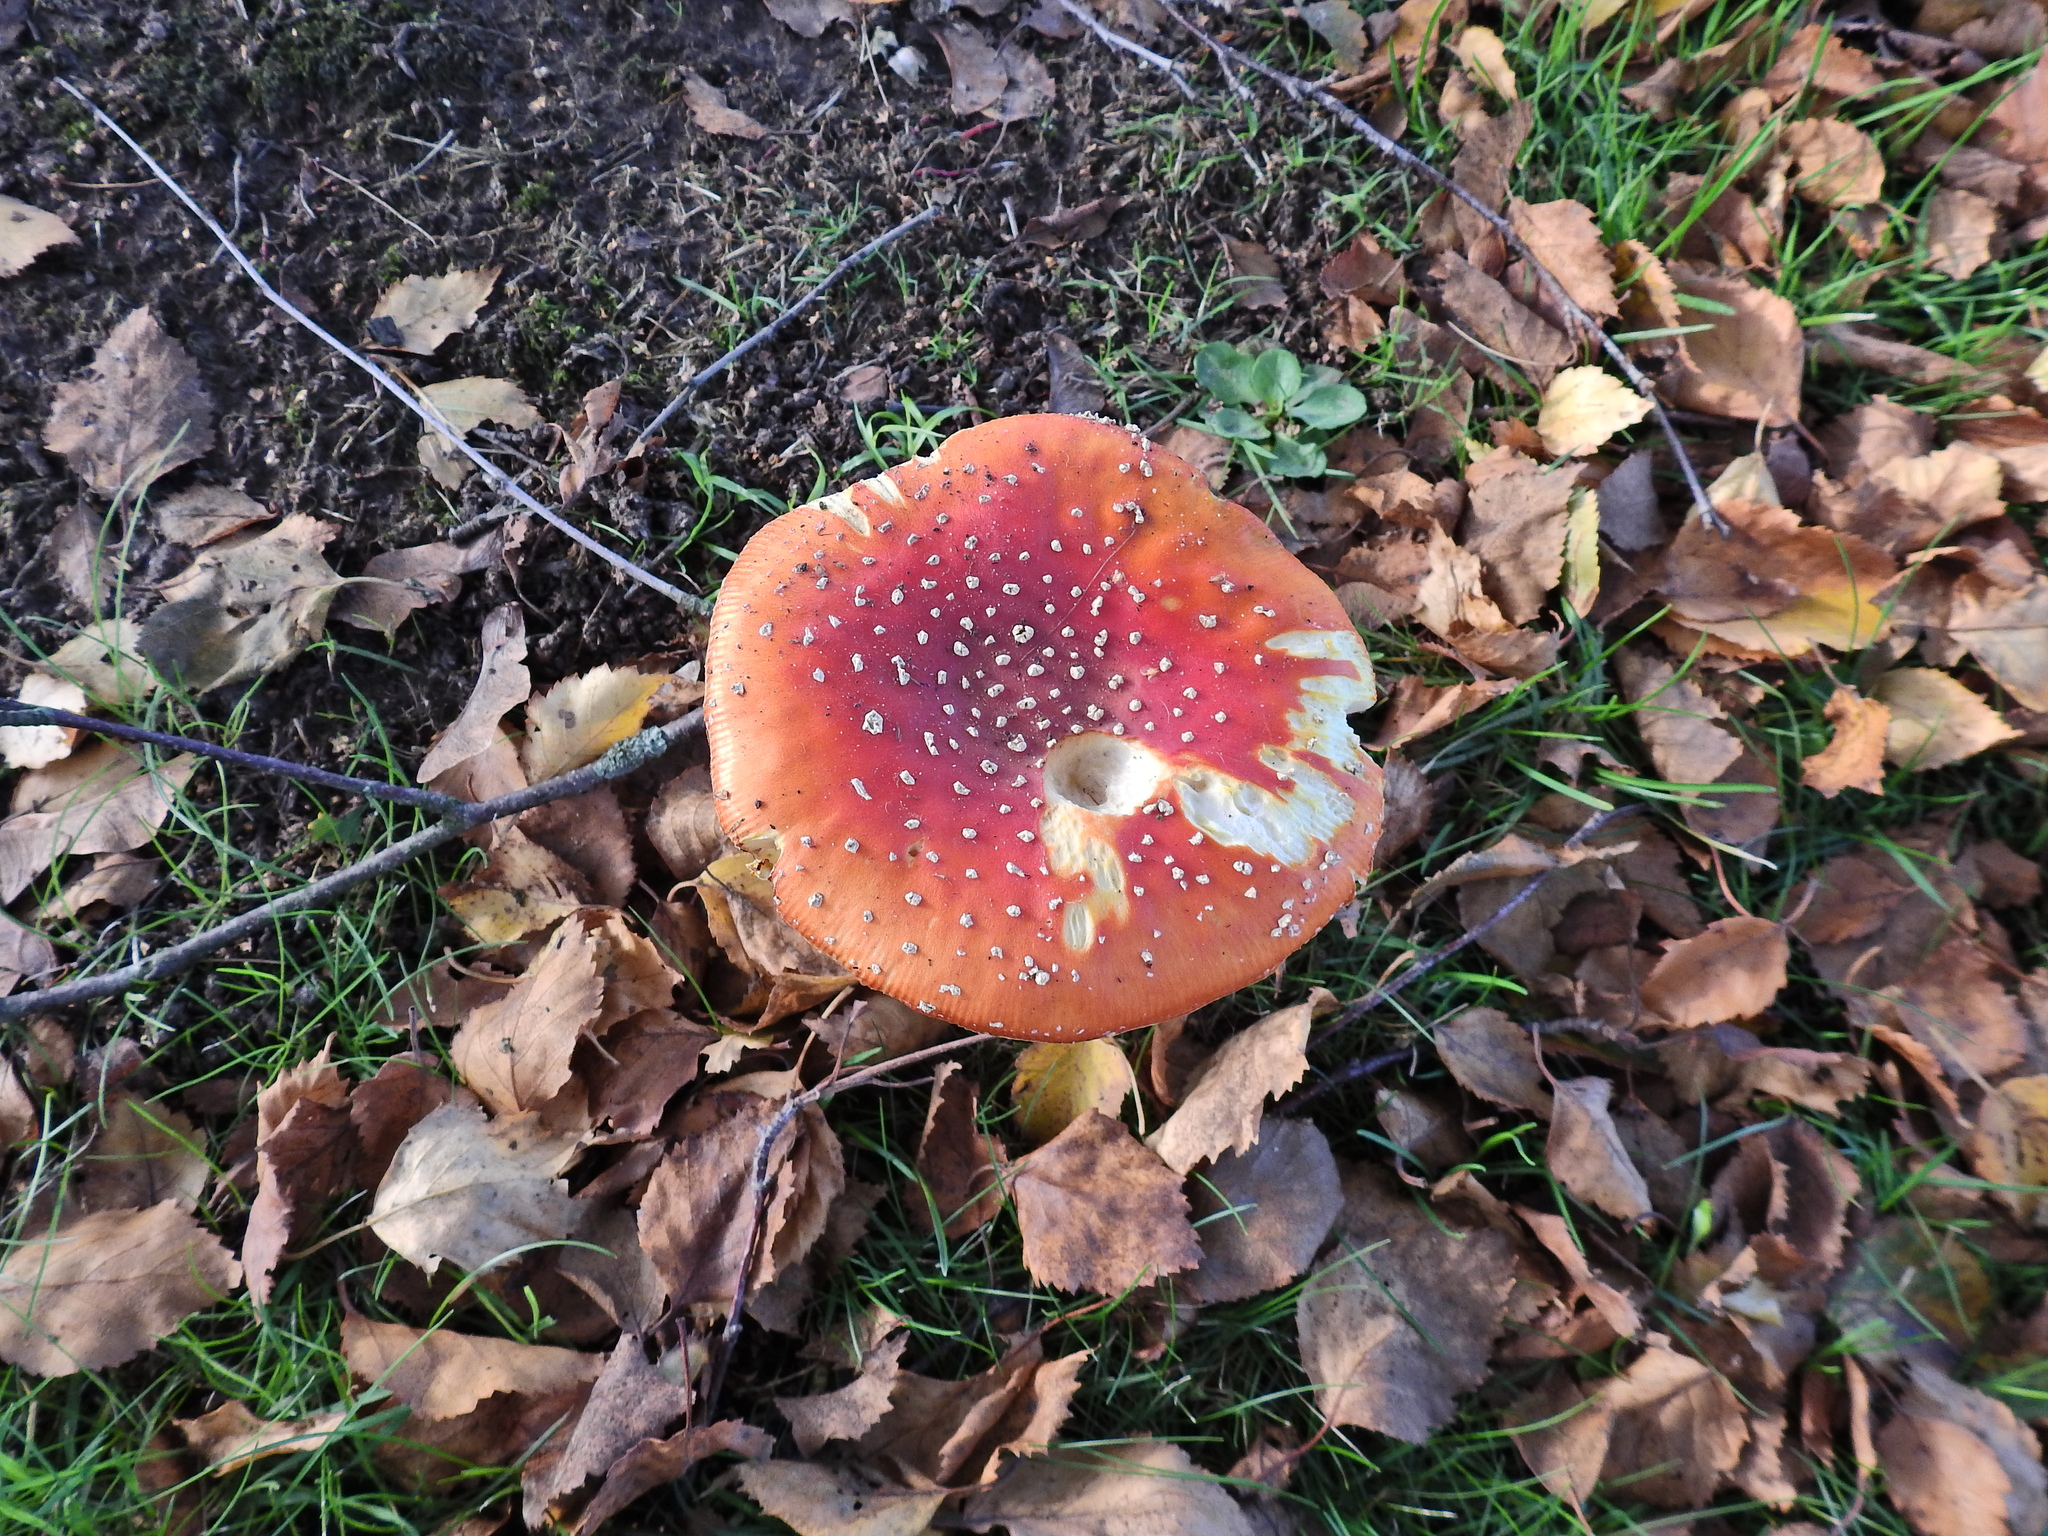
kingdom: Fungi
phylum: Basidiomycota
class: Agaricomycetes
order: Agaricales
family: Amanitaceae
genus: Amanita
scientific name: Amanita muscaria
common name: Fly agaric
